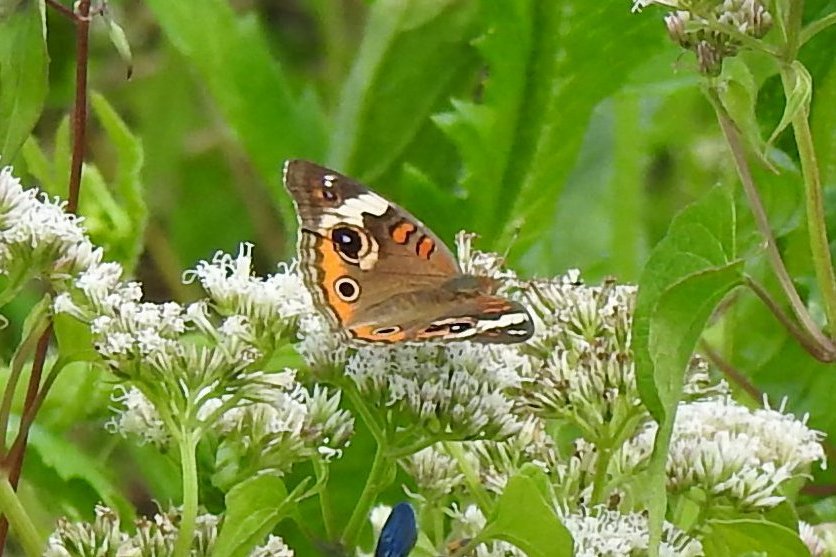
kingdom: Animalia
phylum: Arthropoda
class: Insecta
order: Lepidoptera
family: Nymphalidae
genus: Junonia
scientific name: Junonia coenia
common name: Common buckeye
